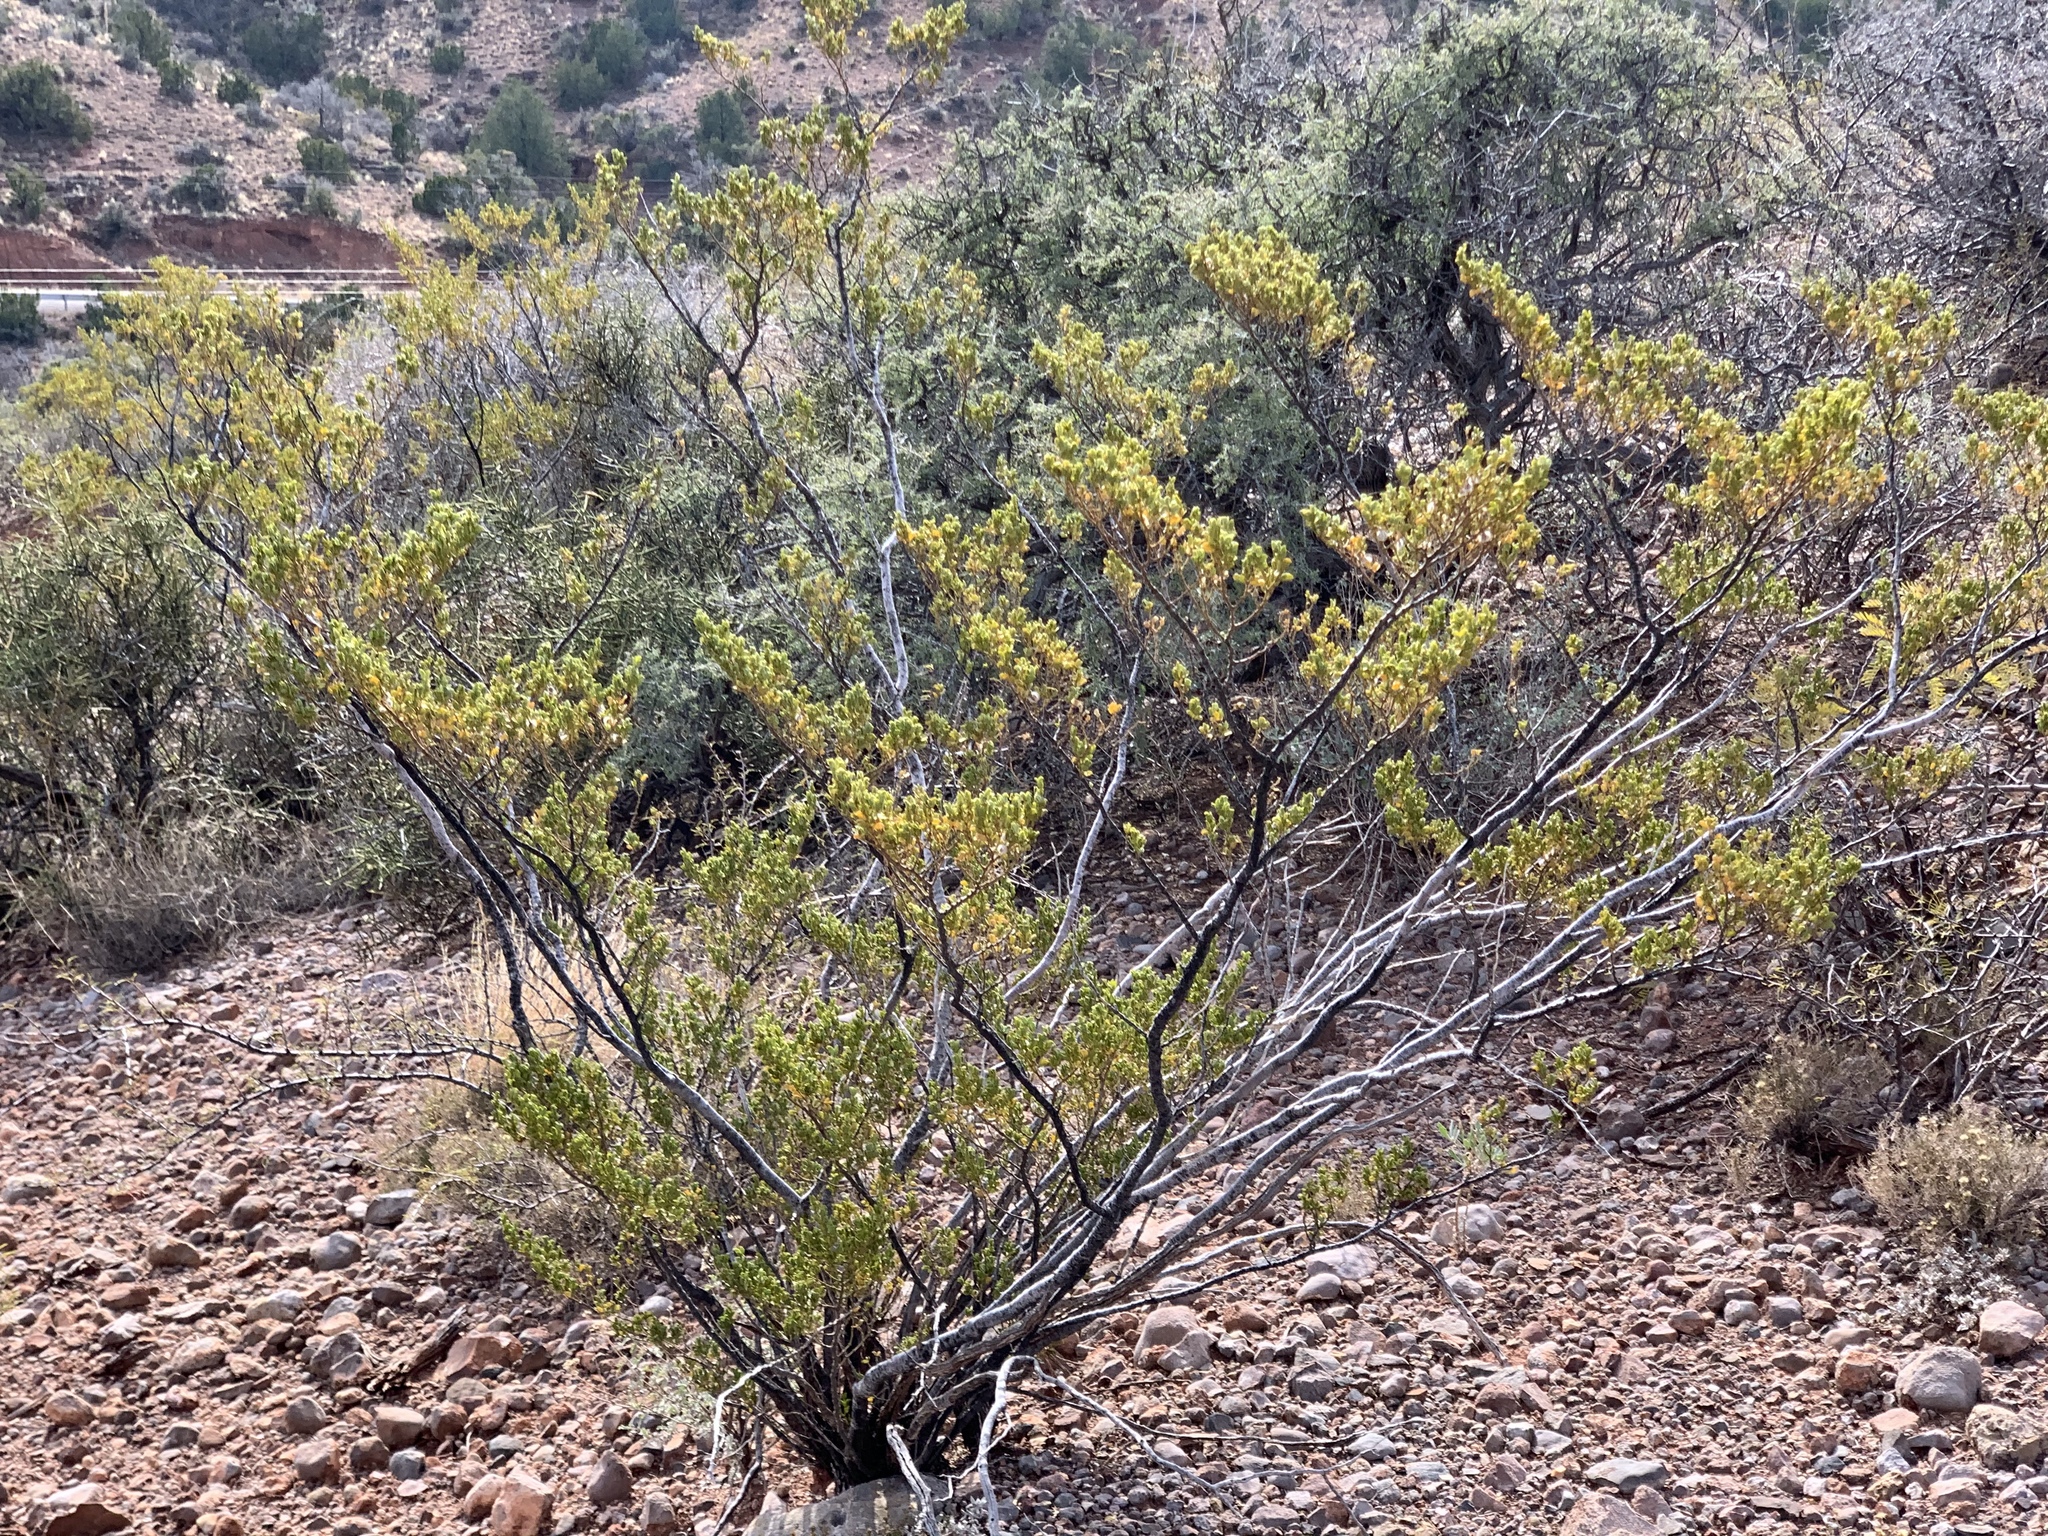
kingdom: Plantae
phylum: Tracheophyta
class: Magnoliopsida
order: Zygophyllales
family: Zygophyllaceae
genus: Larrea
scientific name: Larrea tridentata
